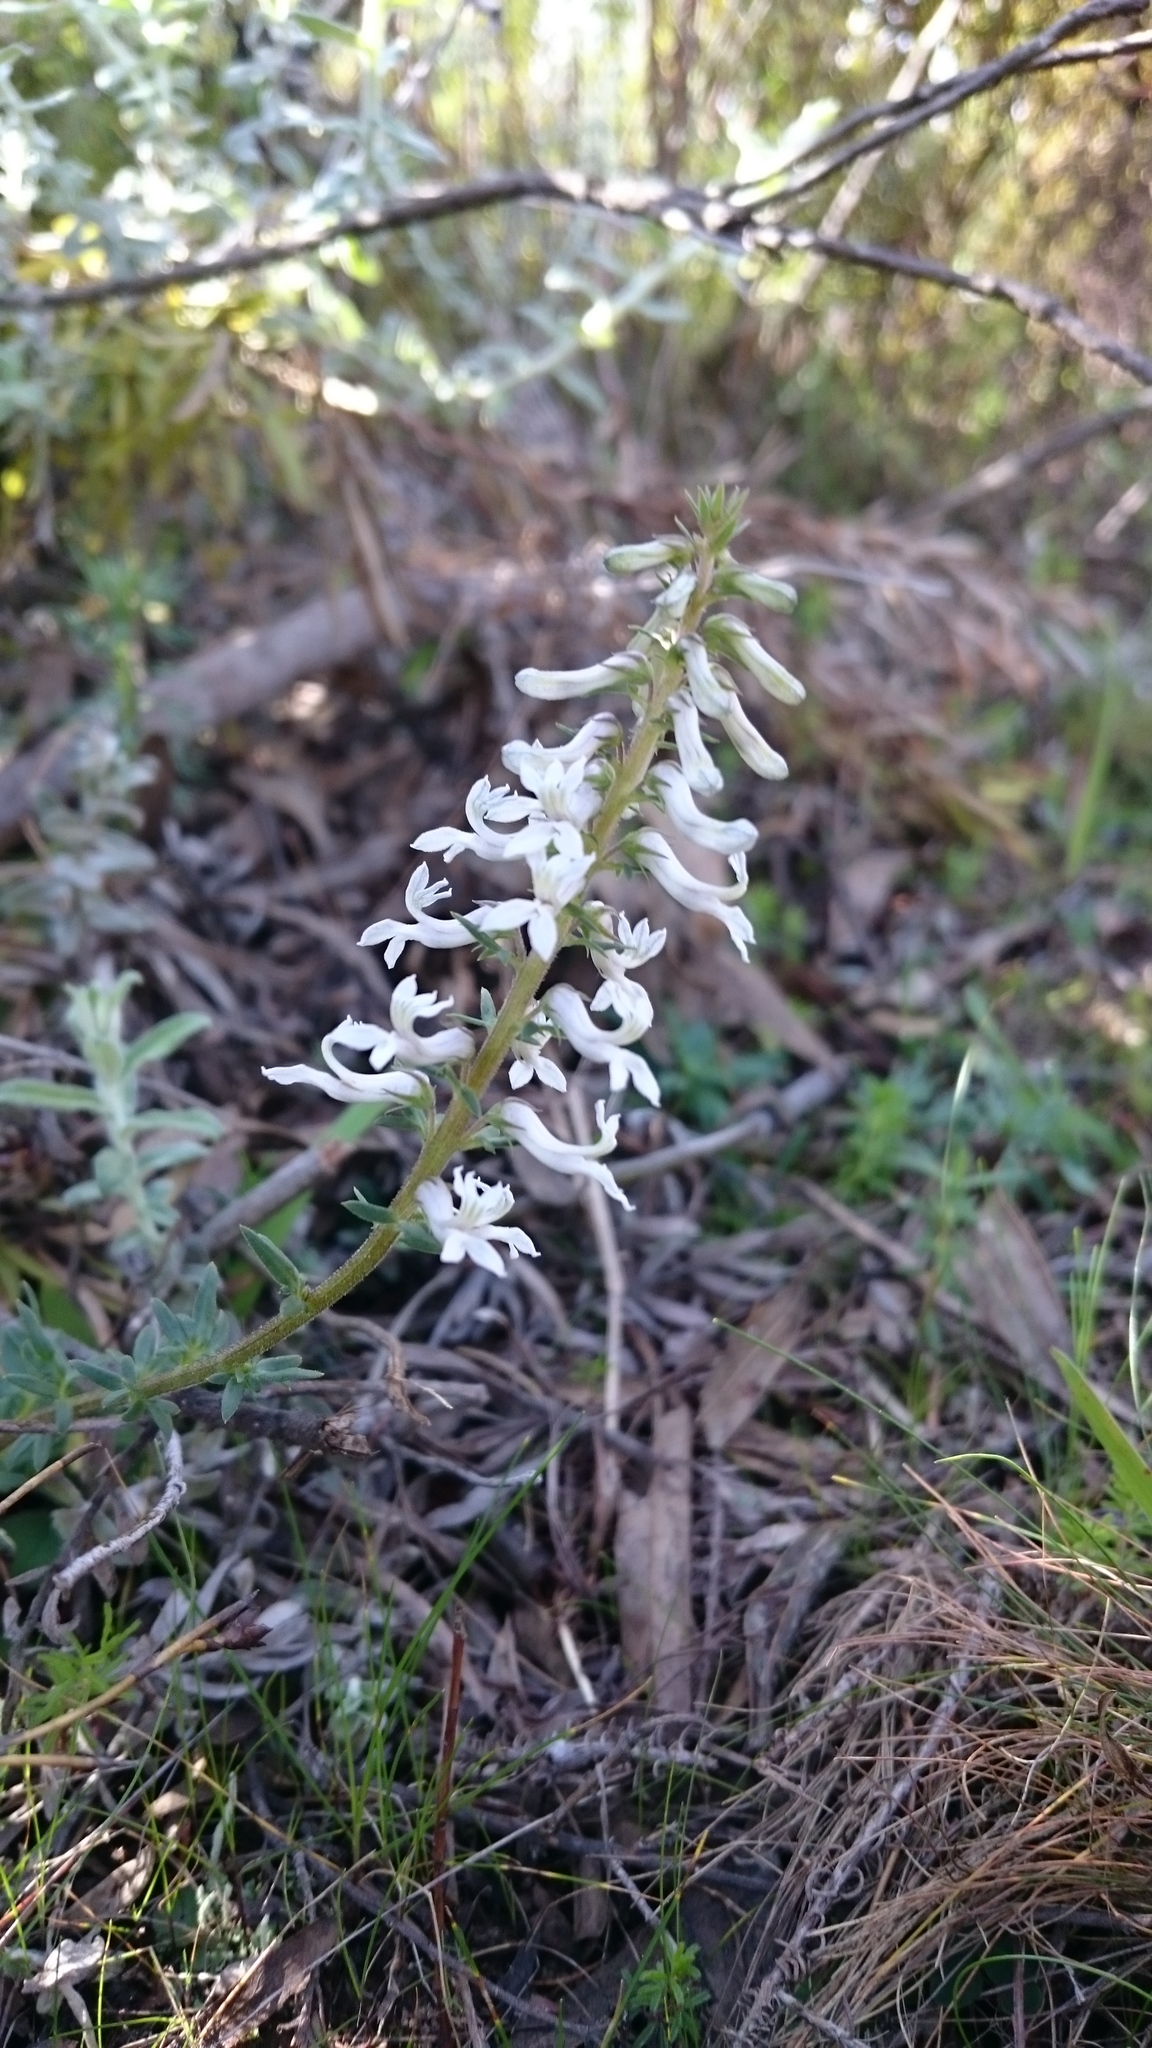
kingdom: Plantae
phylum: Tracheophyta
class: Magnoliopsida
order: Asterales
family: Campanulaceae
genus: Cyphia
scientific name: Cyphia bulbosa
